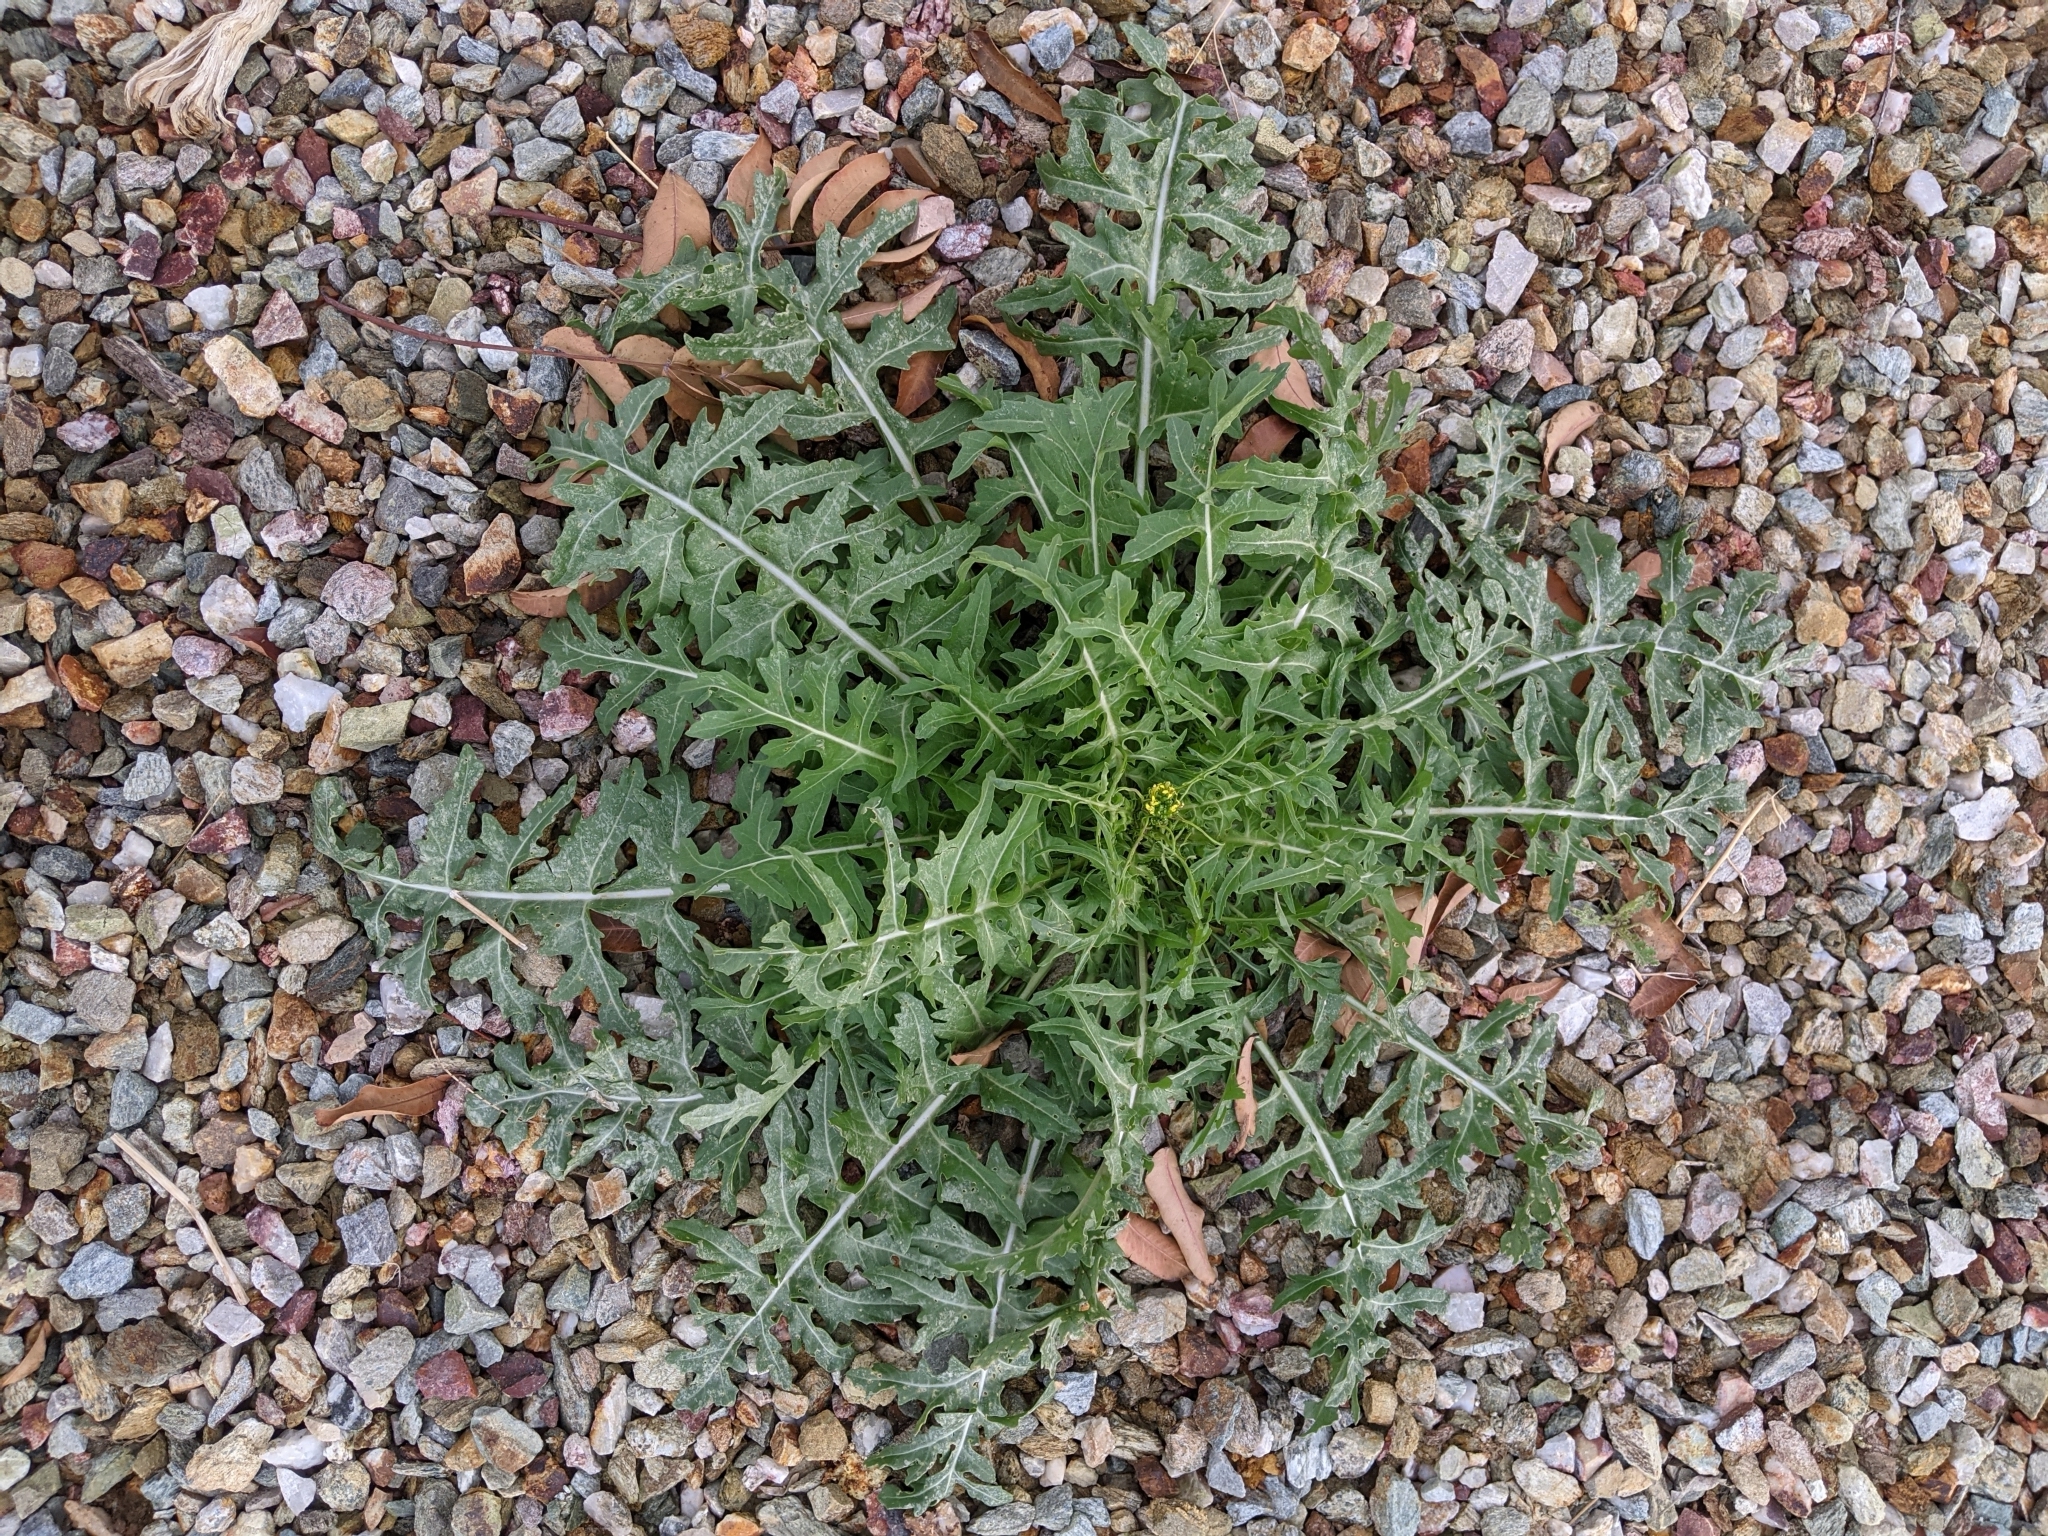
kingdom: Plantae
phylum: Tracheophyta
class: Magnoliopsida
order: Brassicales
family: Brassicaceae
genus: Sisymbrium
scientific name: Sisymbrium irio
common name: London rocket
